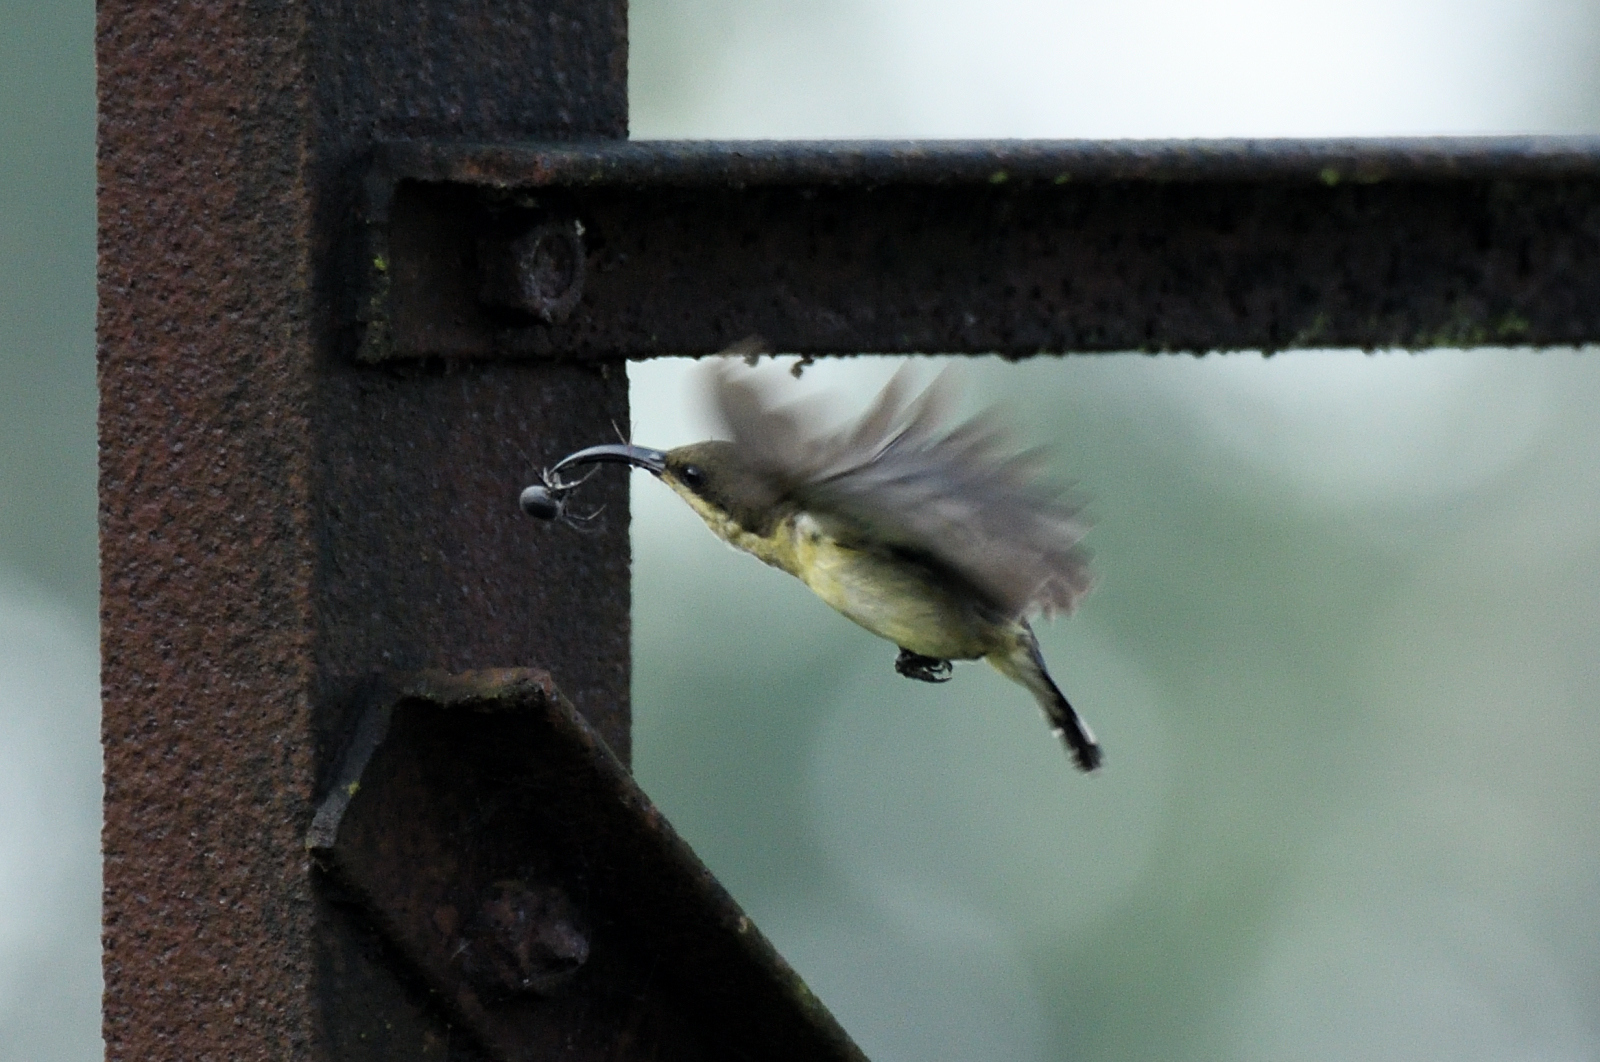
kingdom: Animalia
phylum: Chordata
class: Aves
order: Passeriformes
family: Nectariniidae
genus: Cinnyris
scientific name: Cinnyris lotenius
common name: Loten's sunbird
